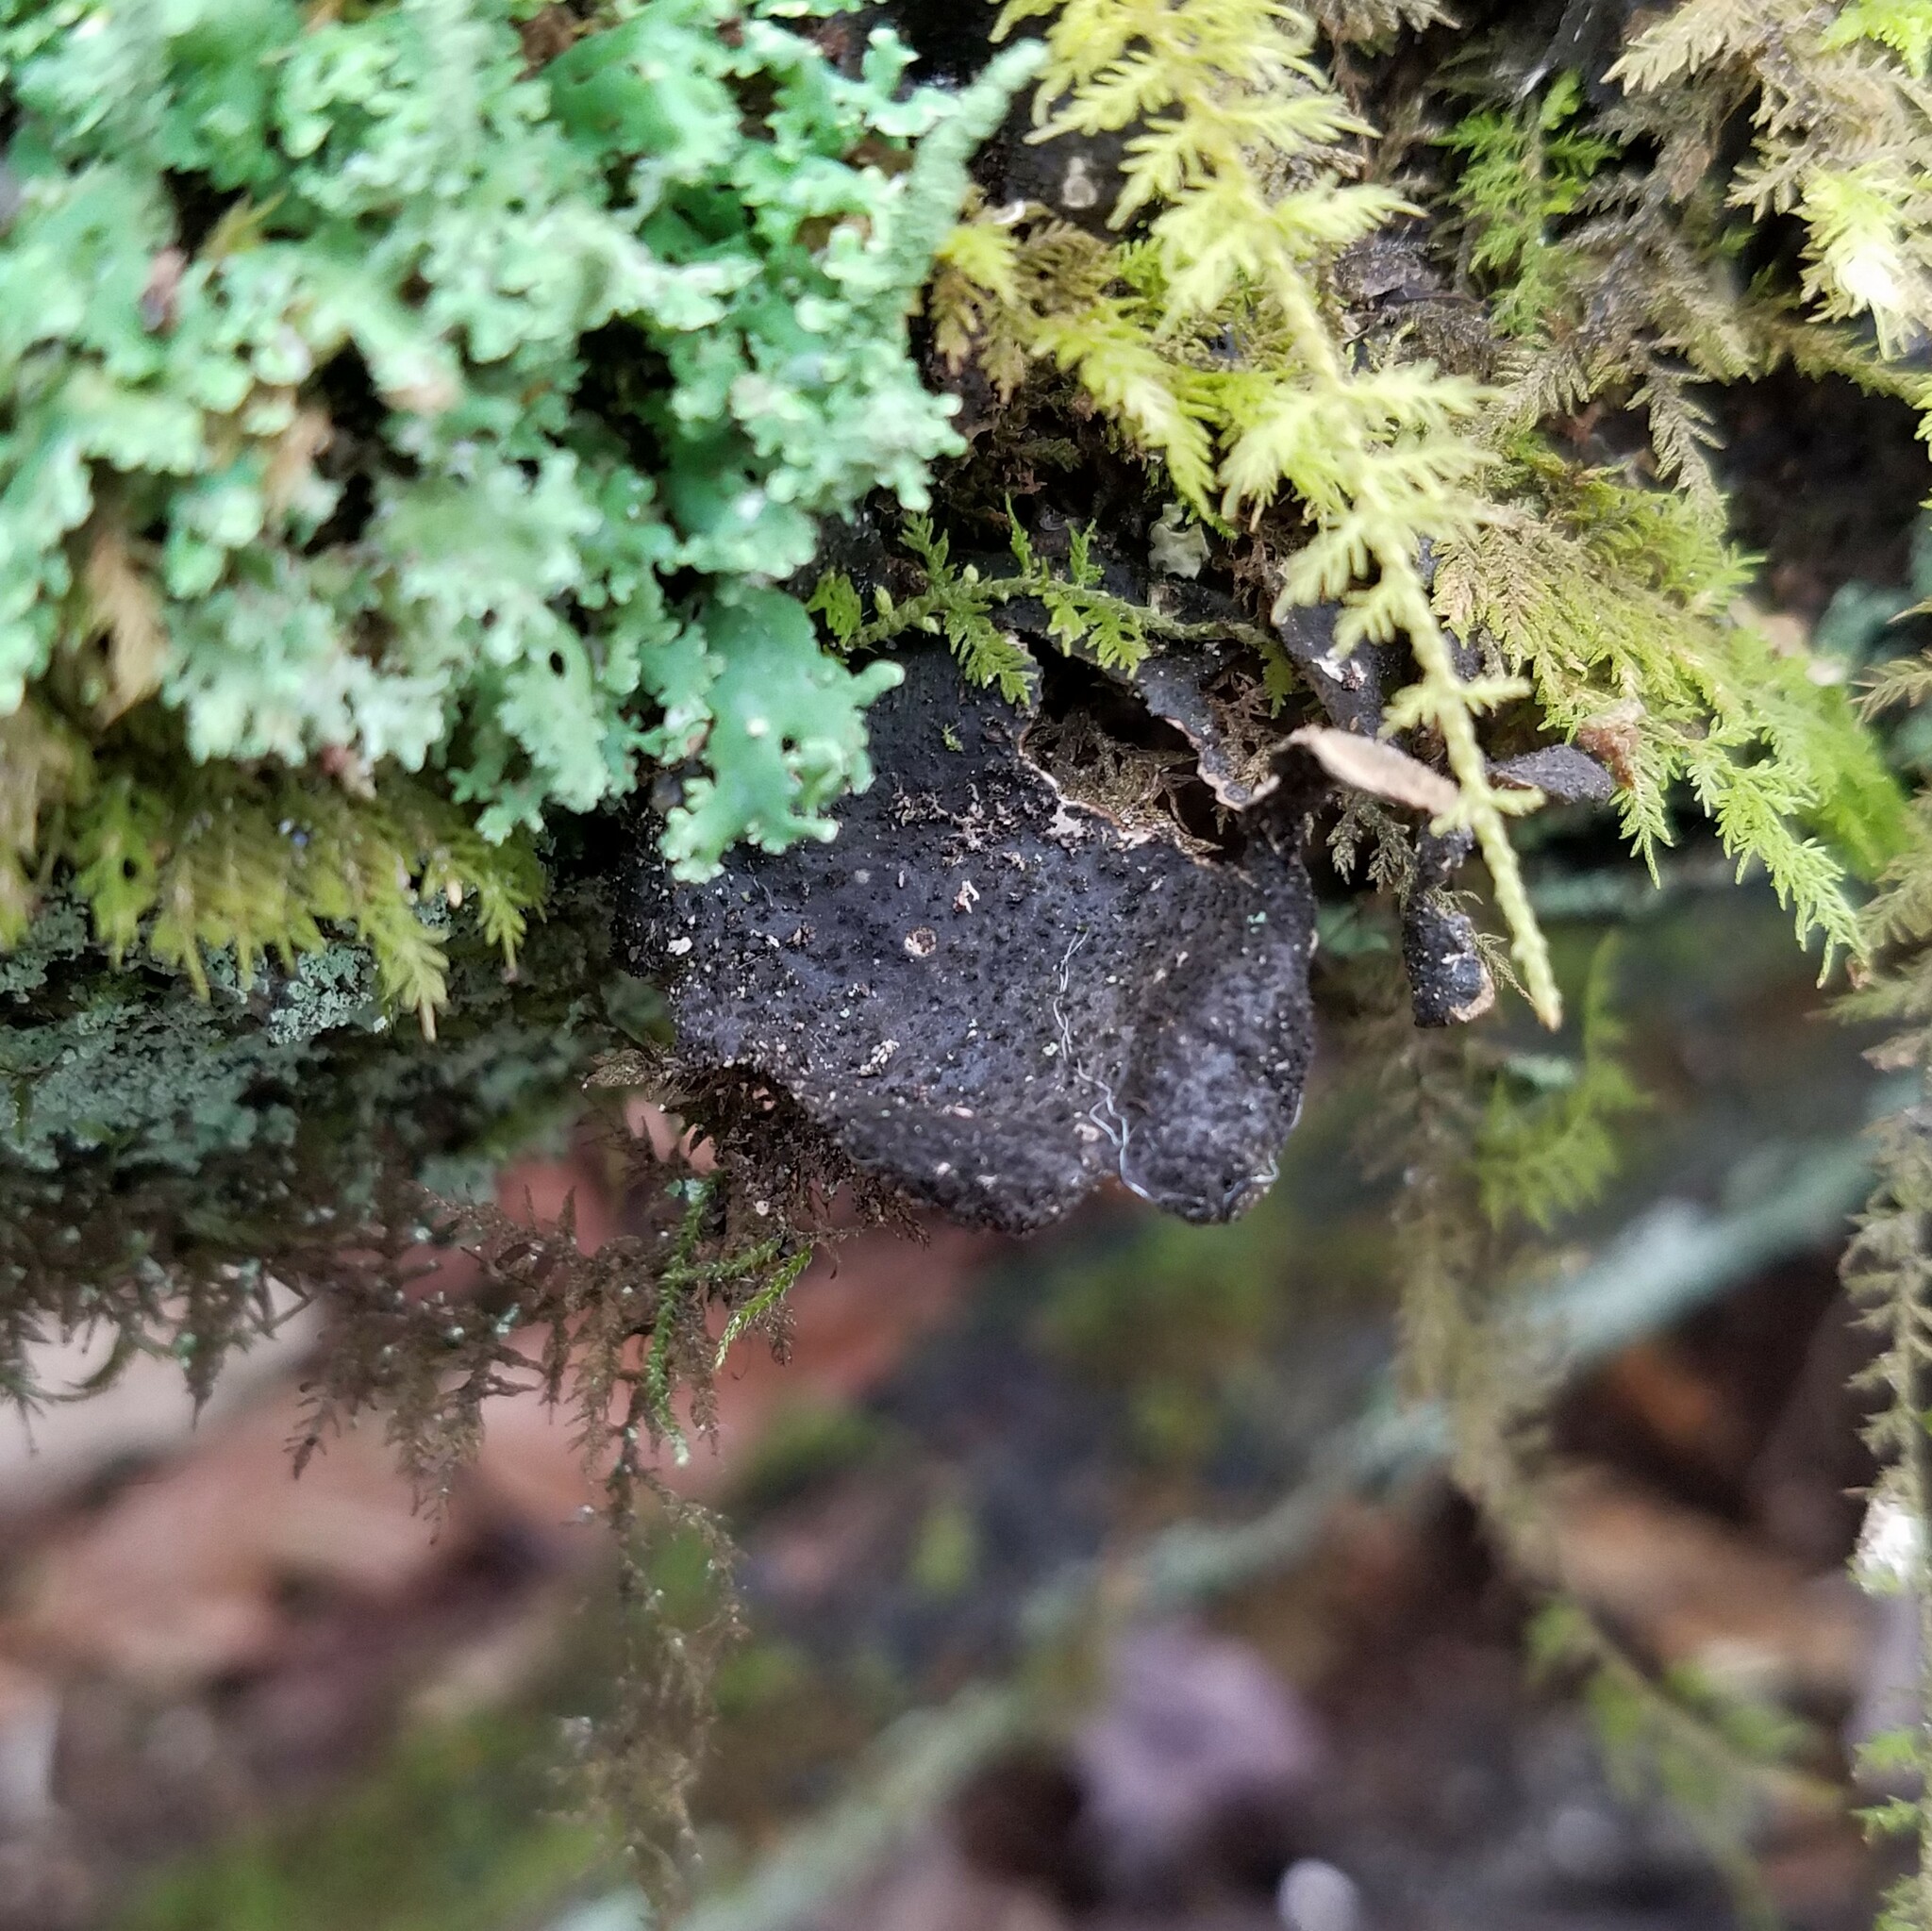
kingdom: Fungi
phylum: Ascomycota
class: Lecanoromycetes
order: Peltigerales
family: Lobariaceae
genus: Sticta
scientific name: Sticta fuliginosa
